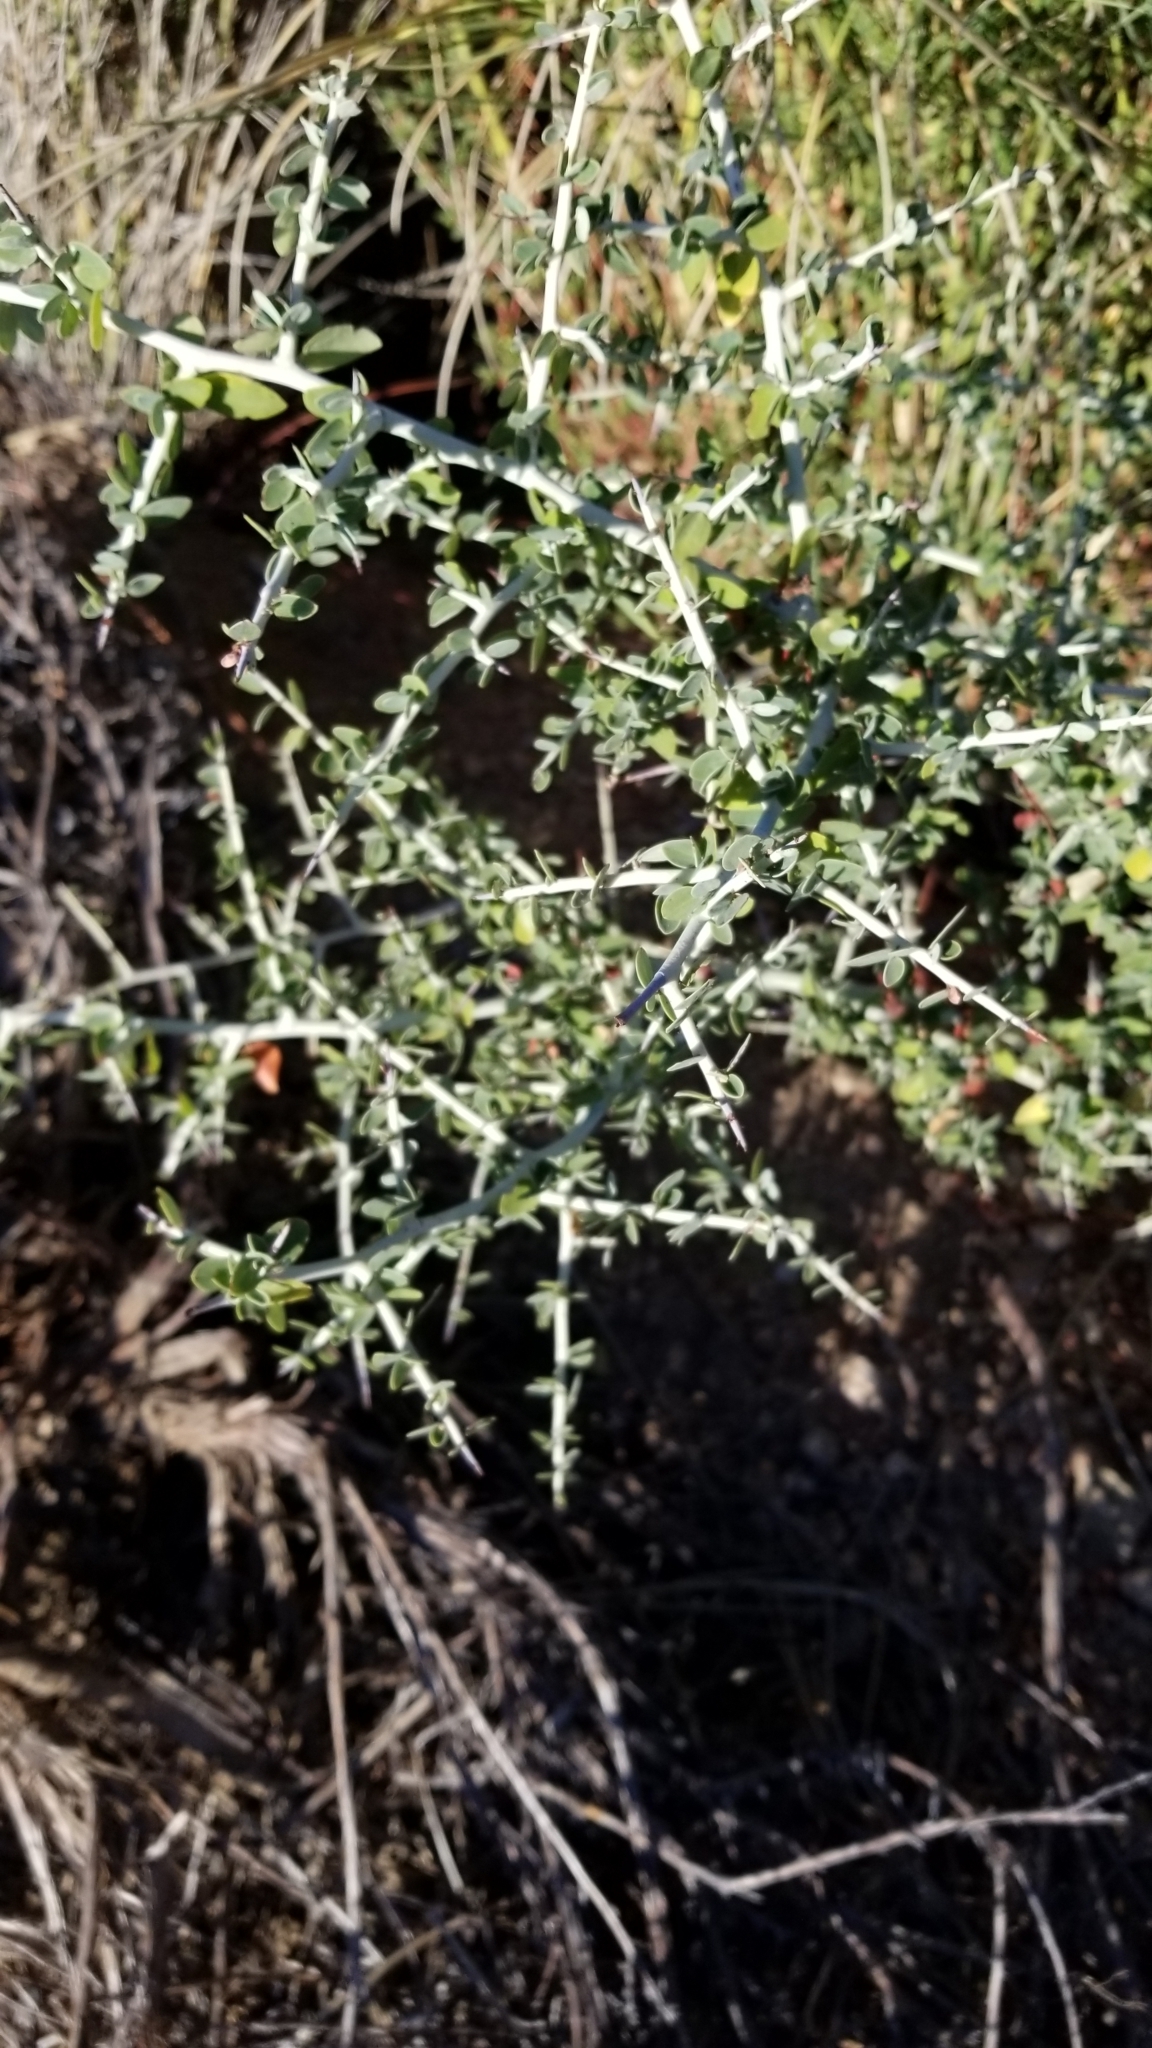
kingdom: Plantae
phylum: Tracheophyta
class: Magnoliopsida
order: Rosales
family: Rhamnaceae
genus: Ceanothus
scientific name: Ceanothus leucodermis
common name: Chaparral whitethorn
